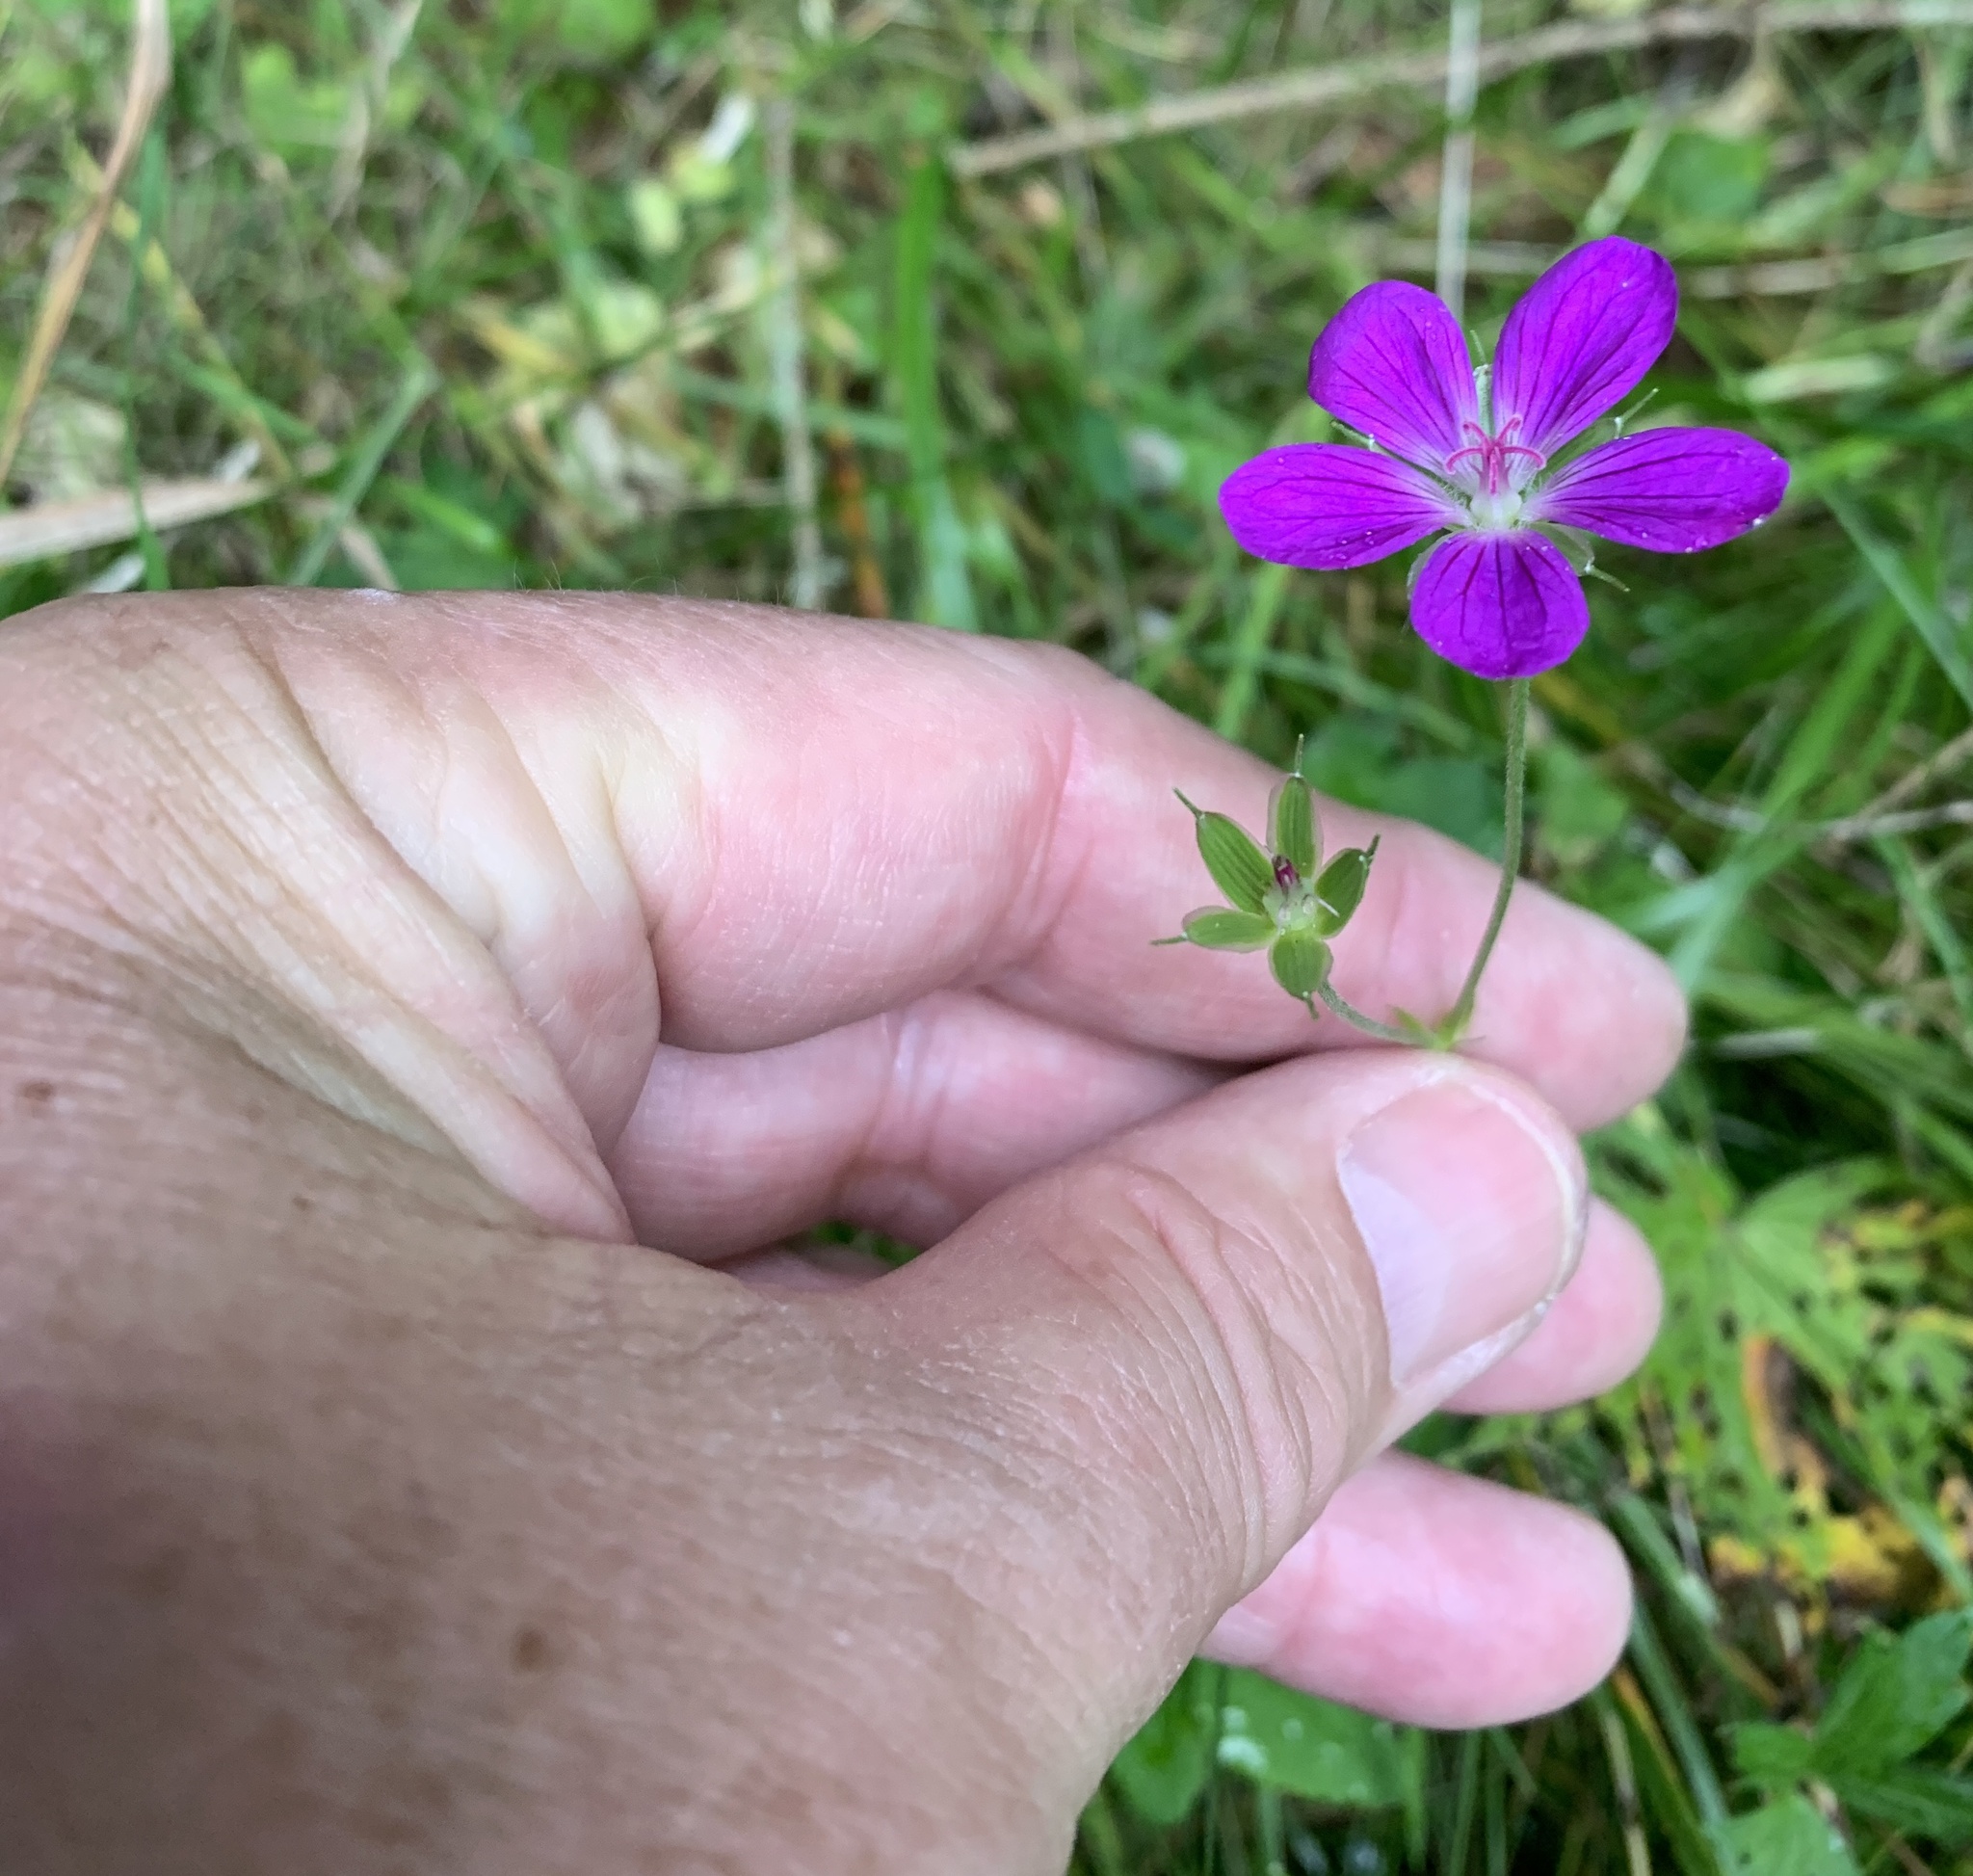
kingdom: Plantae
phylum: Tracheophyta
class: Magnoliopsida
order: Geraniales
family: Geraniaceae
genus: Geranium
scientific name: Geranium palustre
